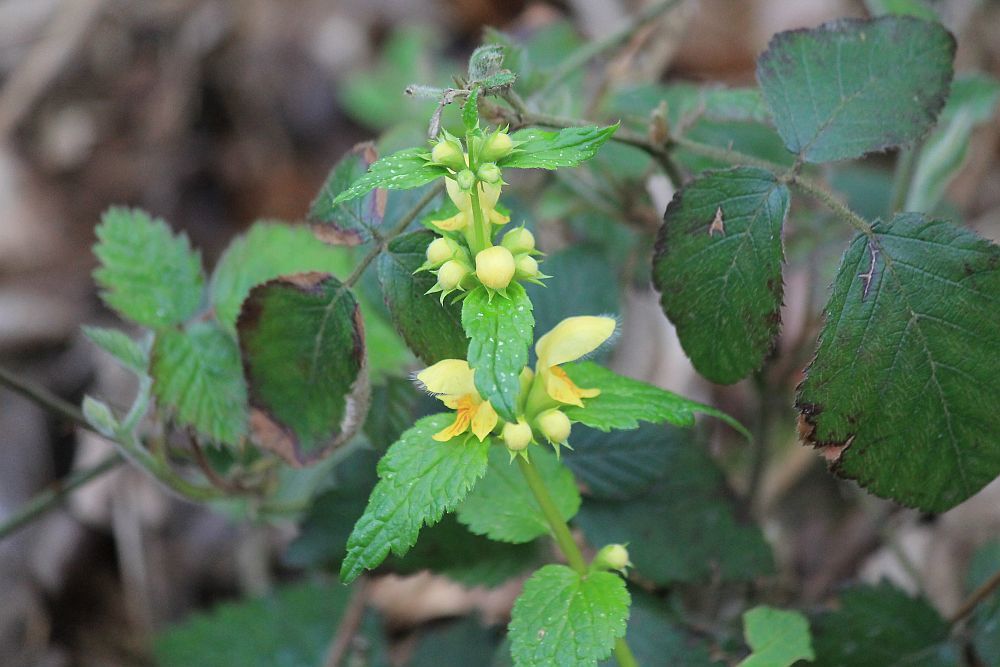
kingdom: Plantae
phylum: Tracheophyta
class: Magnoliopsida
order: Lamiales
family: Lamiaceae
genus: Lamium
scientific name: Lamium galeobdolon
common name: Yellow archangel
